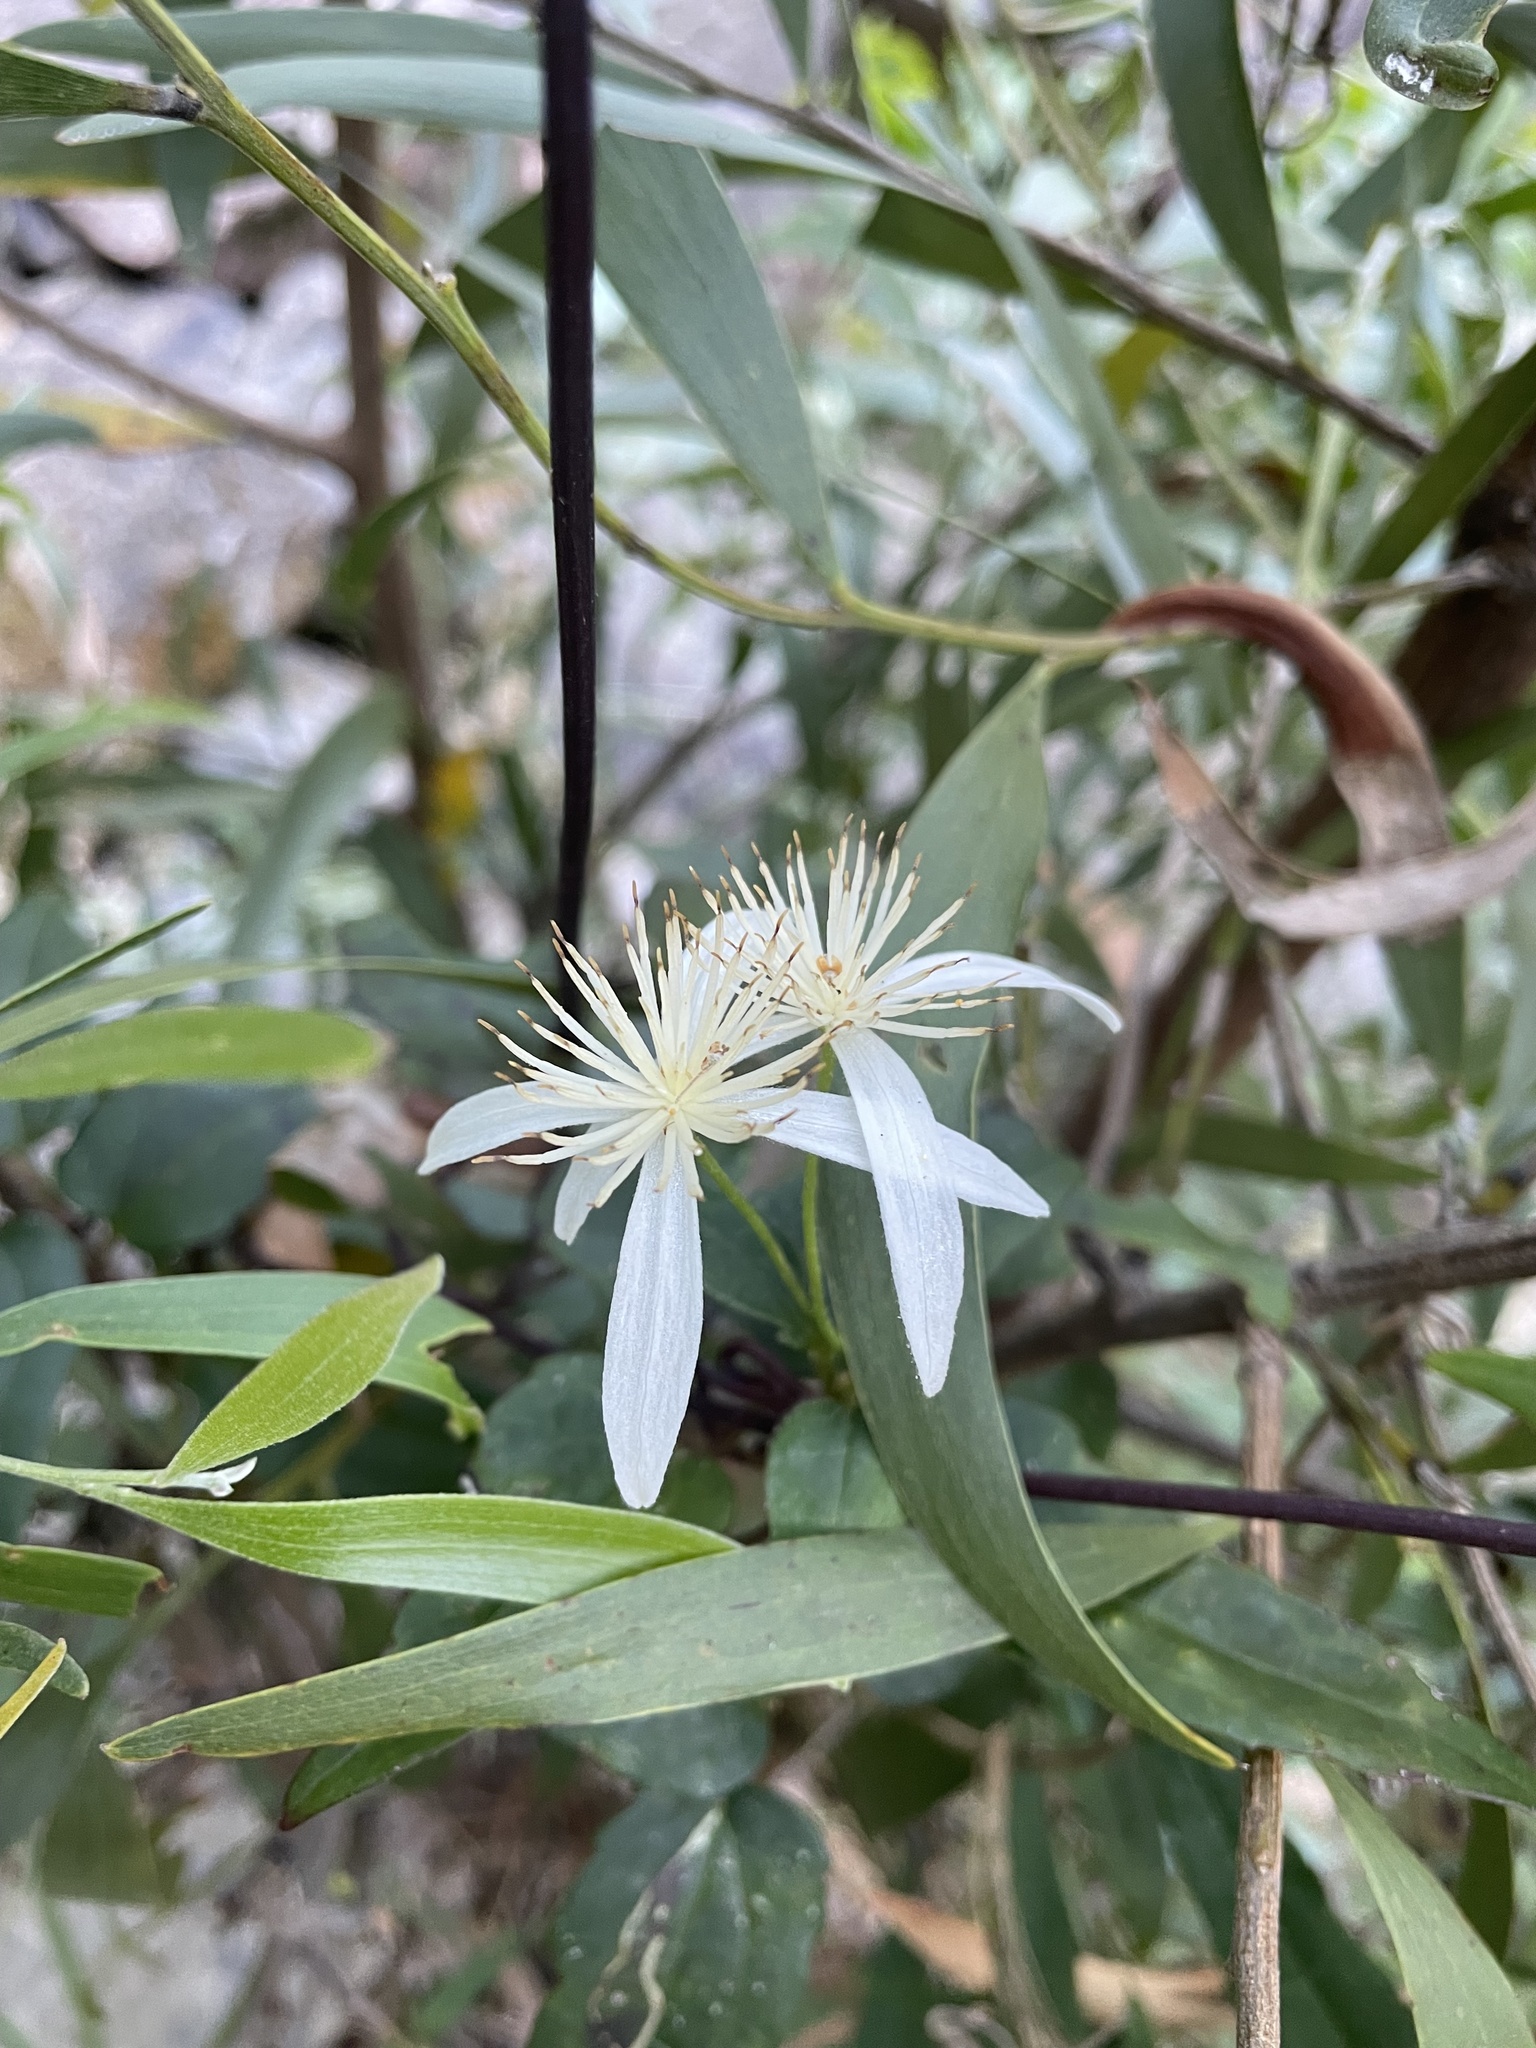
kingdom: Plantae
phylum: Tracheophyta
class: Magnoliopsida
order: Ranunculales
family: Ranunculaceae
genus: Clematis
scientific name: Clematis aristata
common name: Mountain clematis
